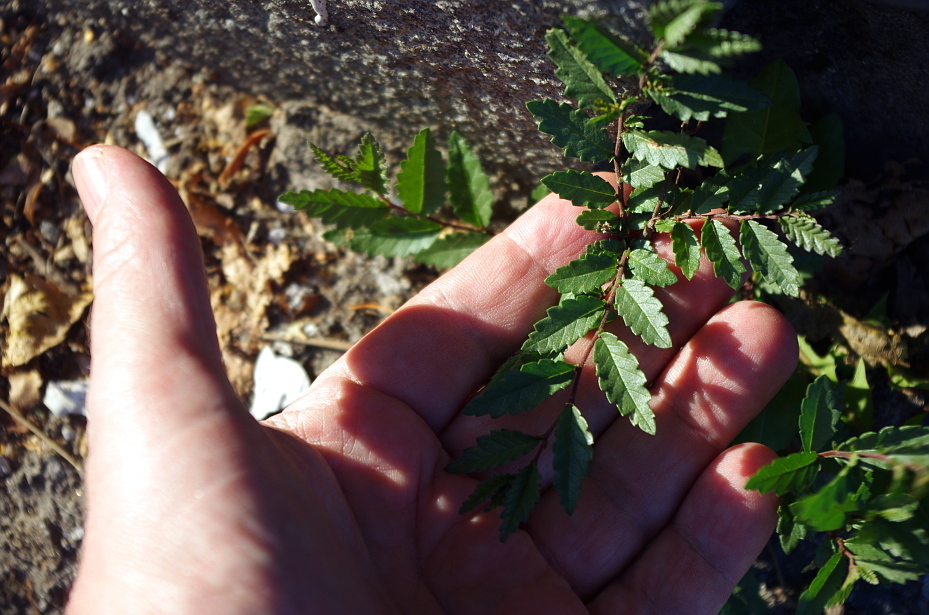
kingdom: Plantae
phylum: Tracheophyta
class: Magnoliopsida
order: Rosales
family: Ulmaceae
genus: Ulmus
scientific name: Ulmus pumila
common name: Siberian elm
